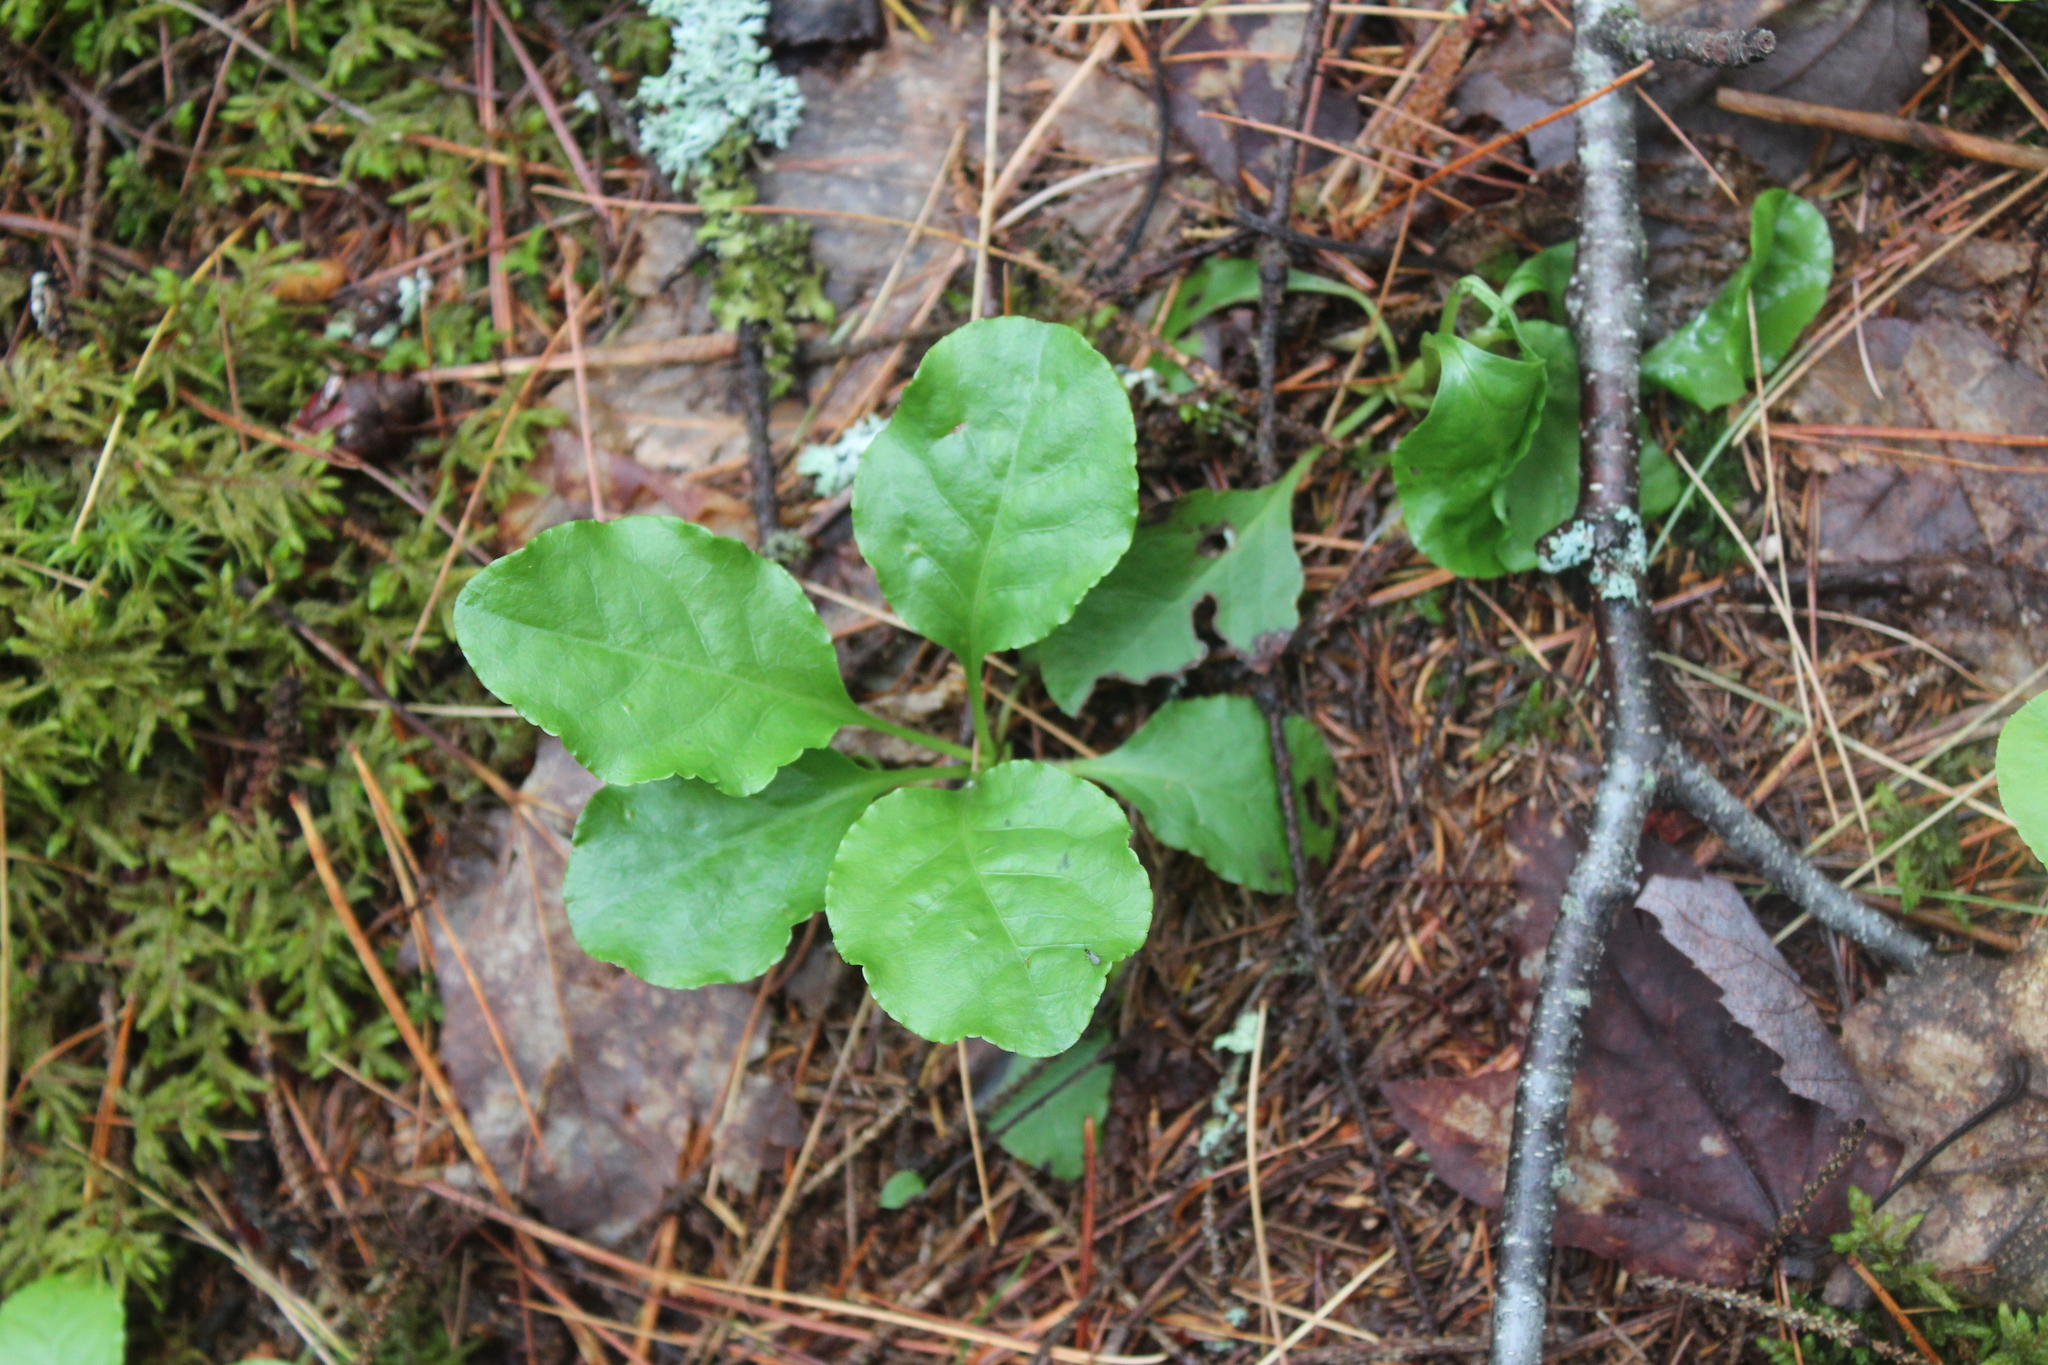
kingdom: Plantae
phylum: Tracheophyta
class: Magnoliopsida
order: Ericales
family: Ericaceae
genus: Pyrola
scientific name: Pyrola elliptica
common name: Shinleaf
